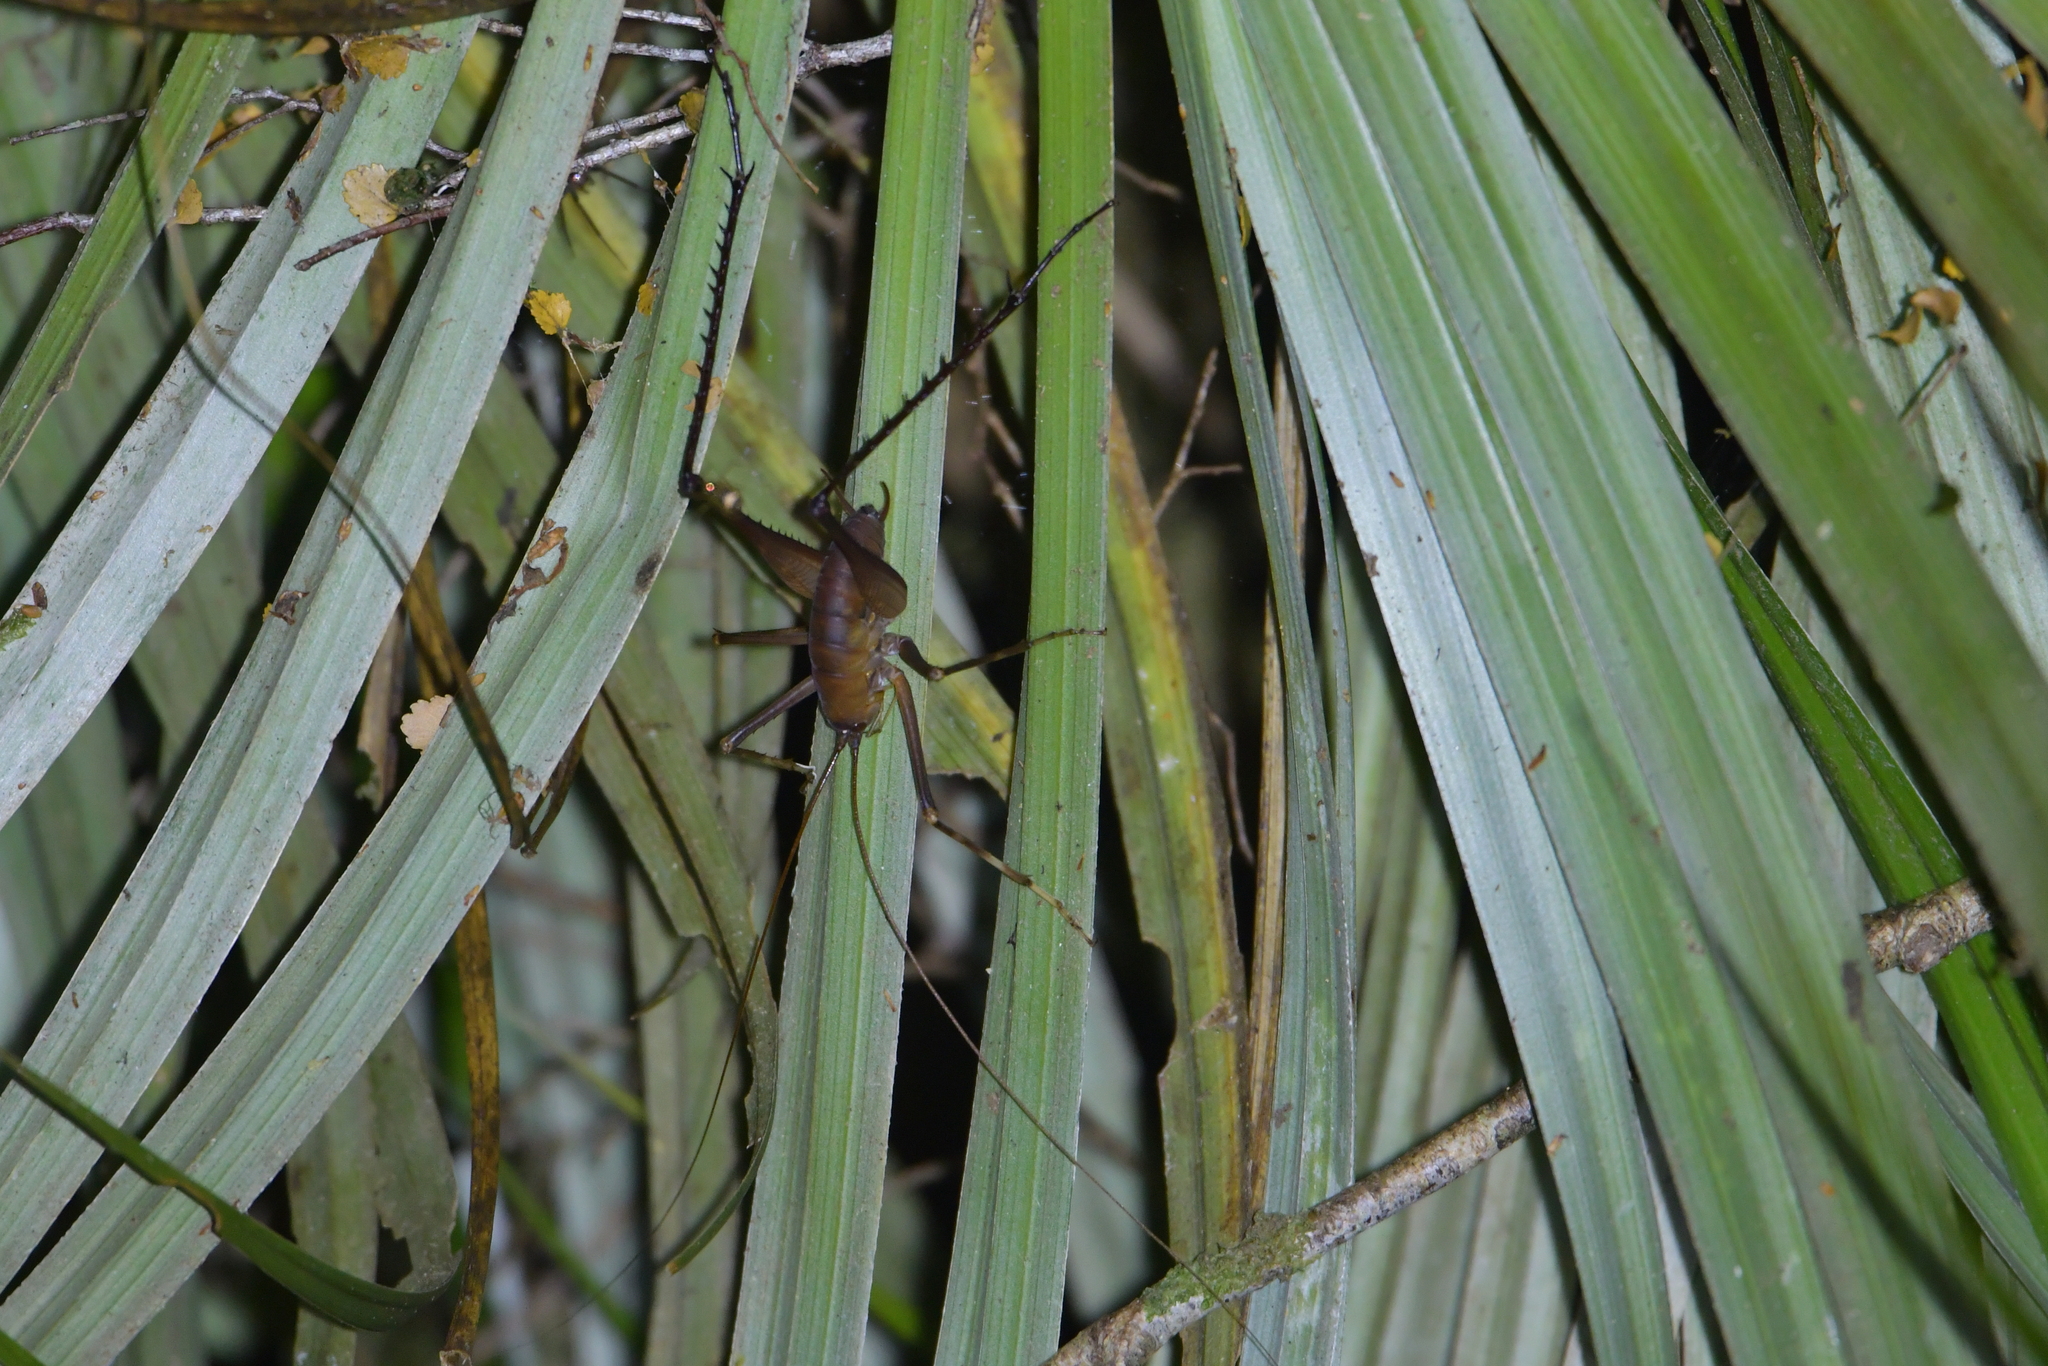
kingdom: Animalia
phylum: Arthropoda
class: Insecta
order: Orthoptera
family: Rhaphidophoridae
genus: Pachyrhamma
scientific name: Pachyrhamma longipes
